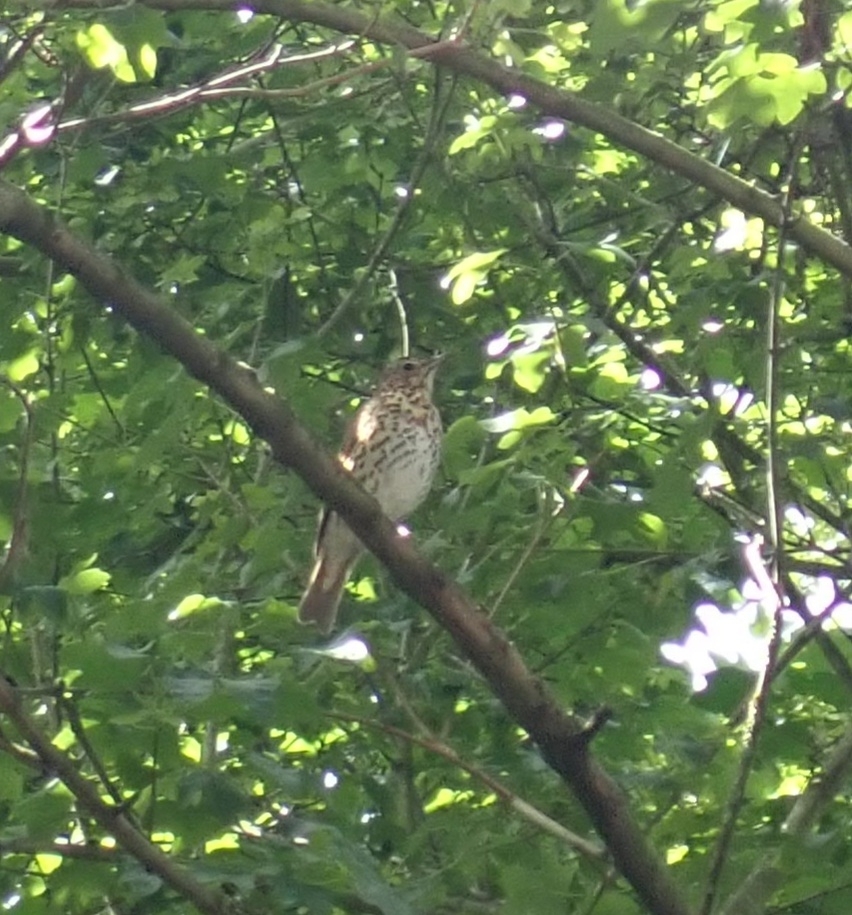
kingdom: Animalia
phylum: Chordata
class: Aves
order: Passeriformes
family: Turdidae
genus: Turdus
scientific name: Turdus philomelos
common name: Song thrush
